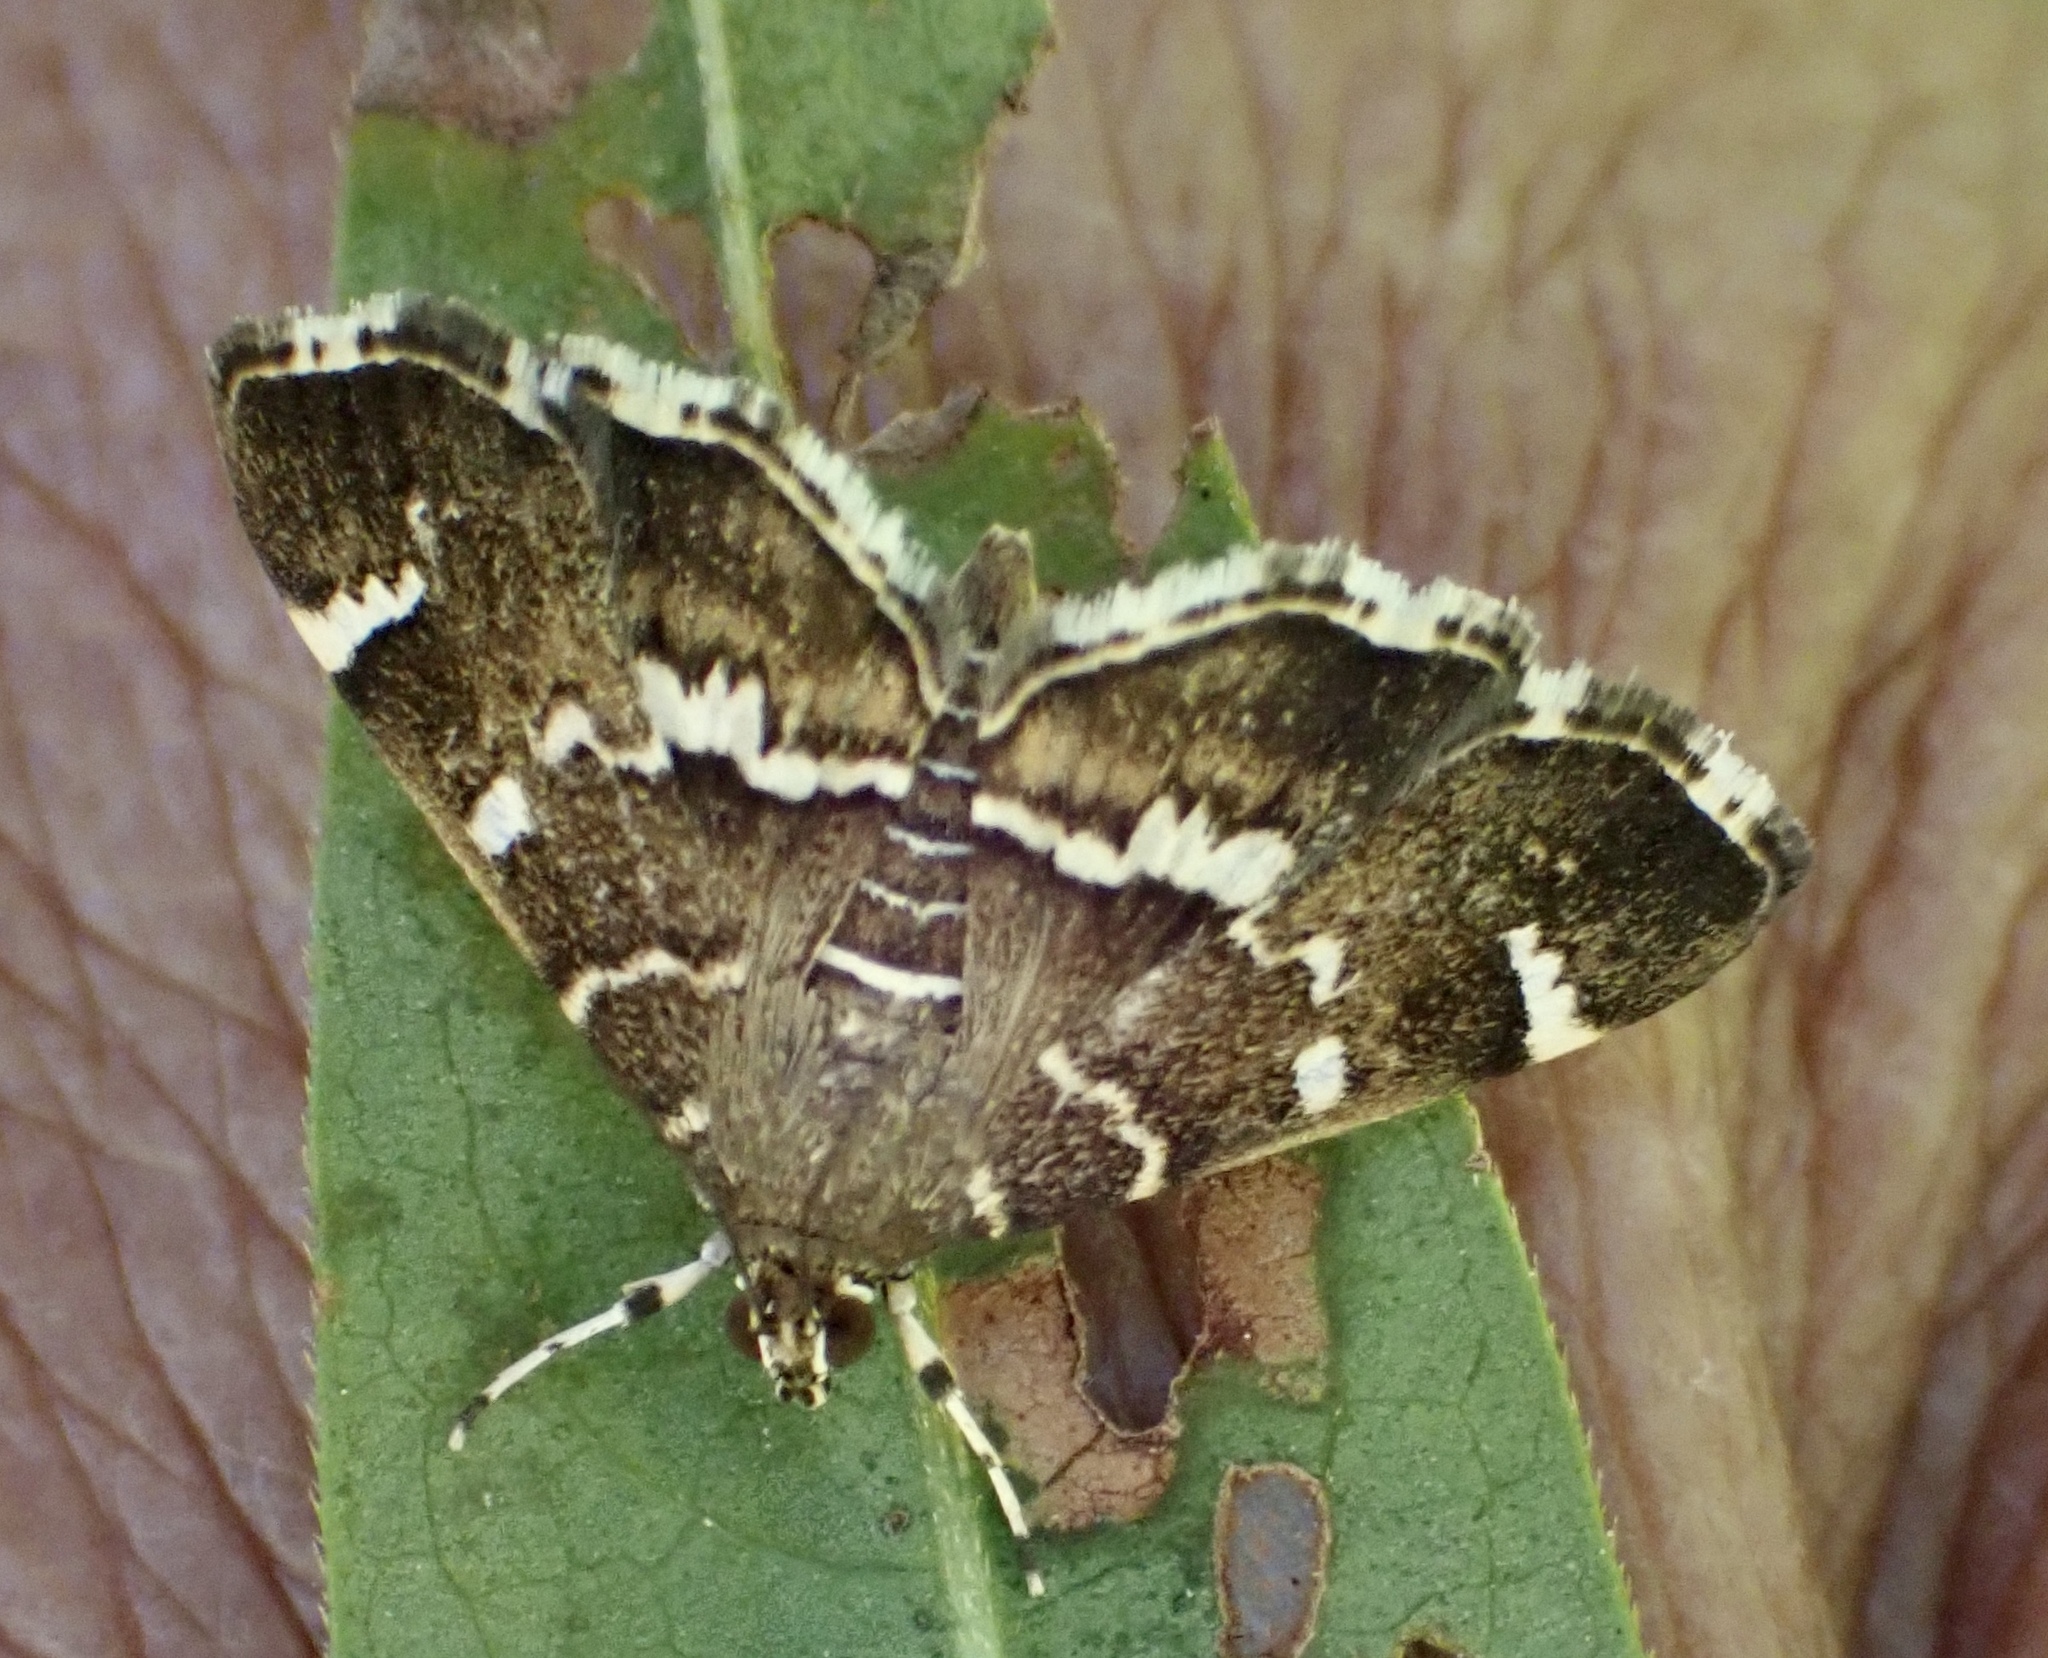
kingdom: Animalia
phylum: Arthropoda
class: Insecta
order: Lepidoptera
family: Crambidae
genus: Hymenia
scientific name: Hymenia perspectalis
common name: Spotted beet webworm
